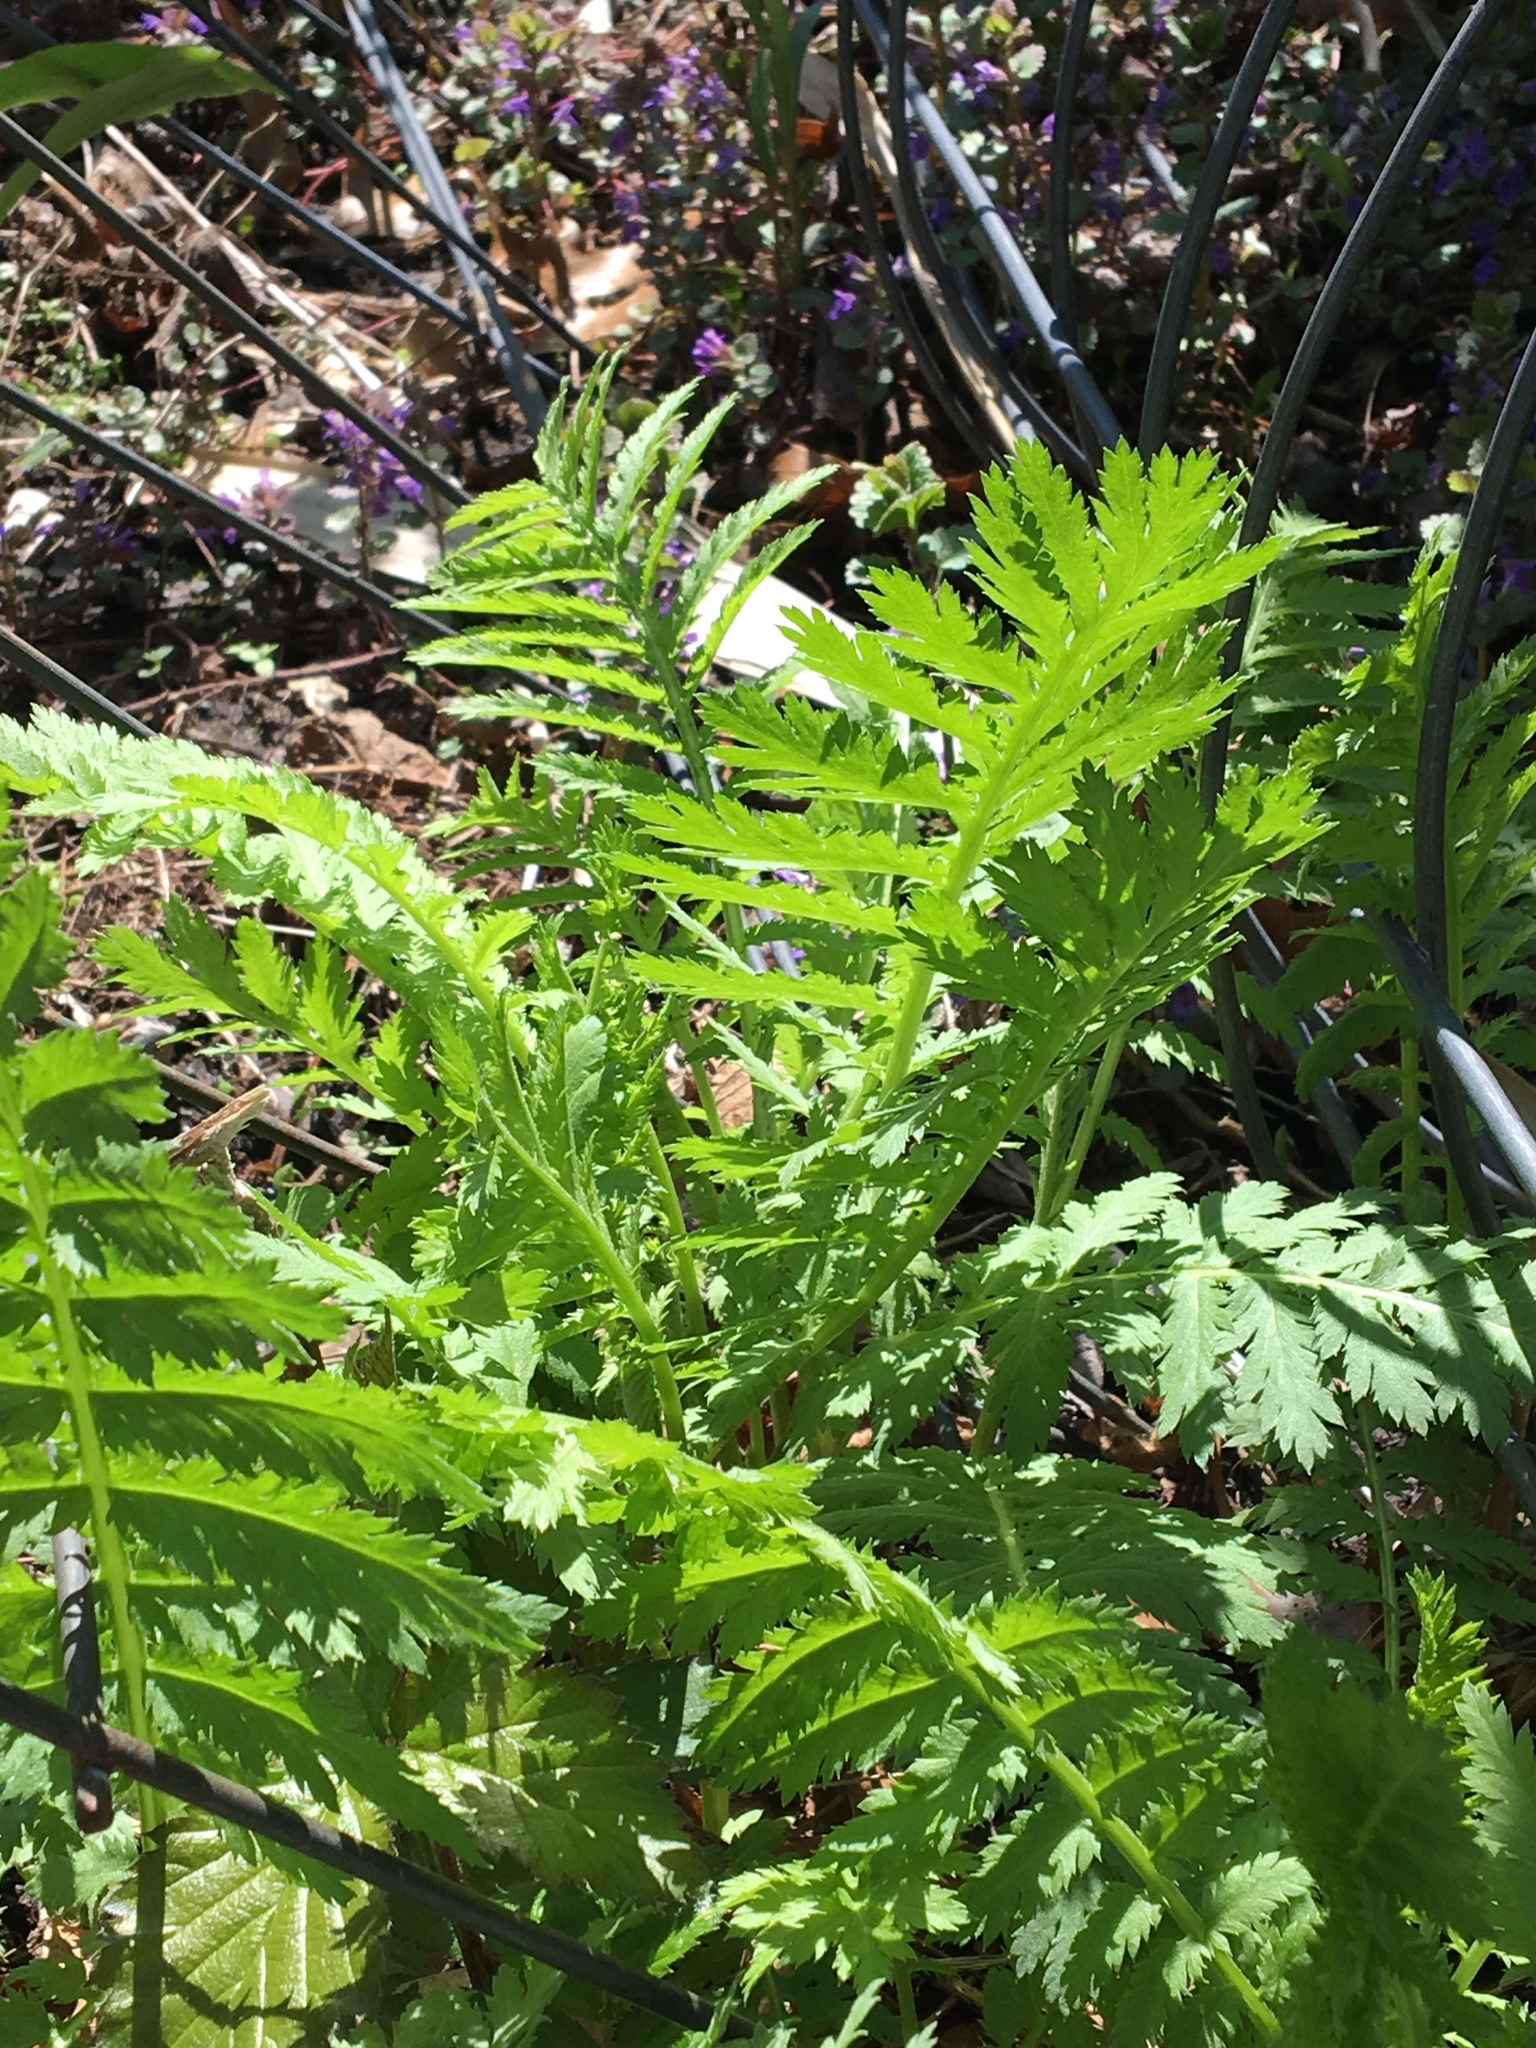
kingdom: Plantae
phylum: Tracheophyta
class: Magnoliopsida
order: Asterales
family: Asteraceae
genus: Tanacetum
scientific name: Tanacetum vulgare
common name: Common tansy
